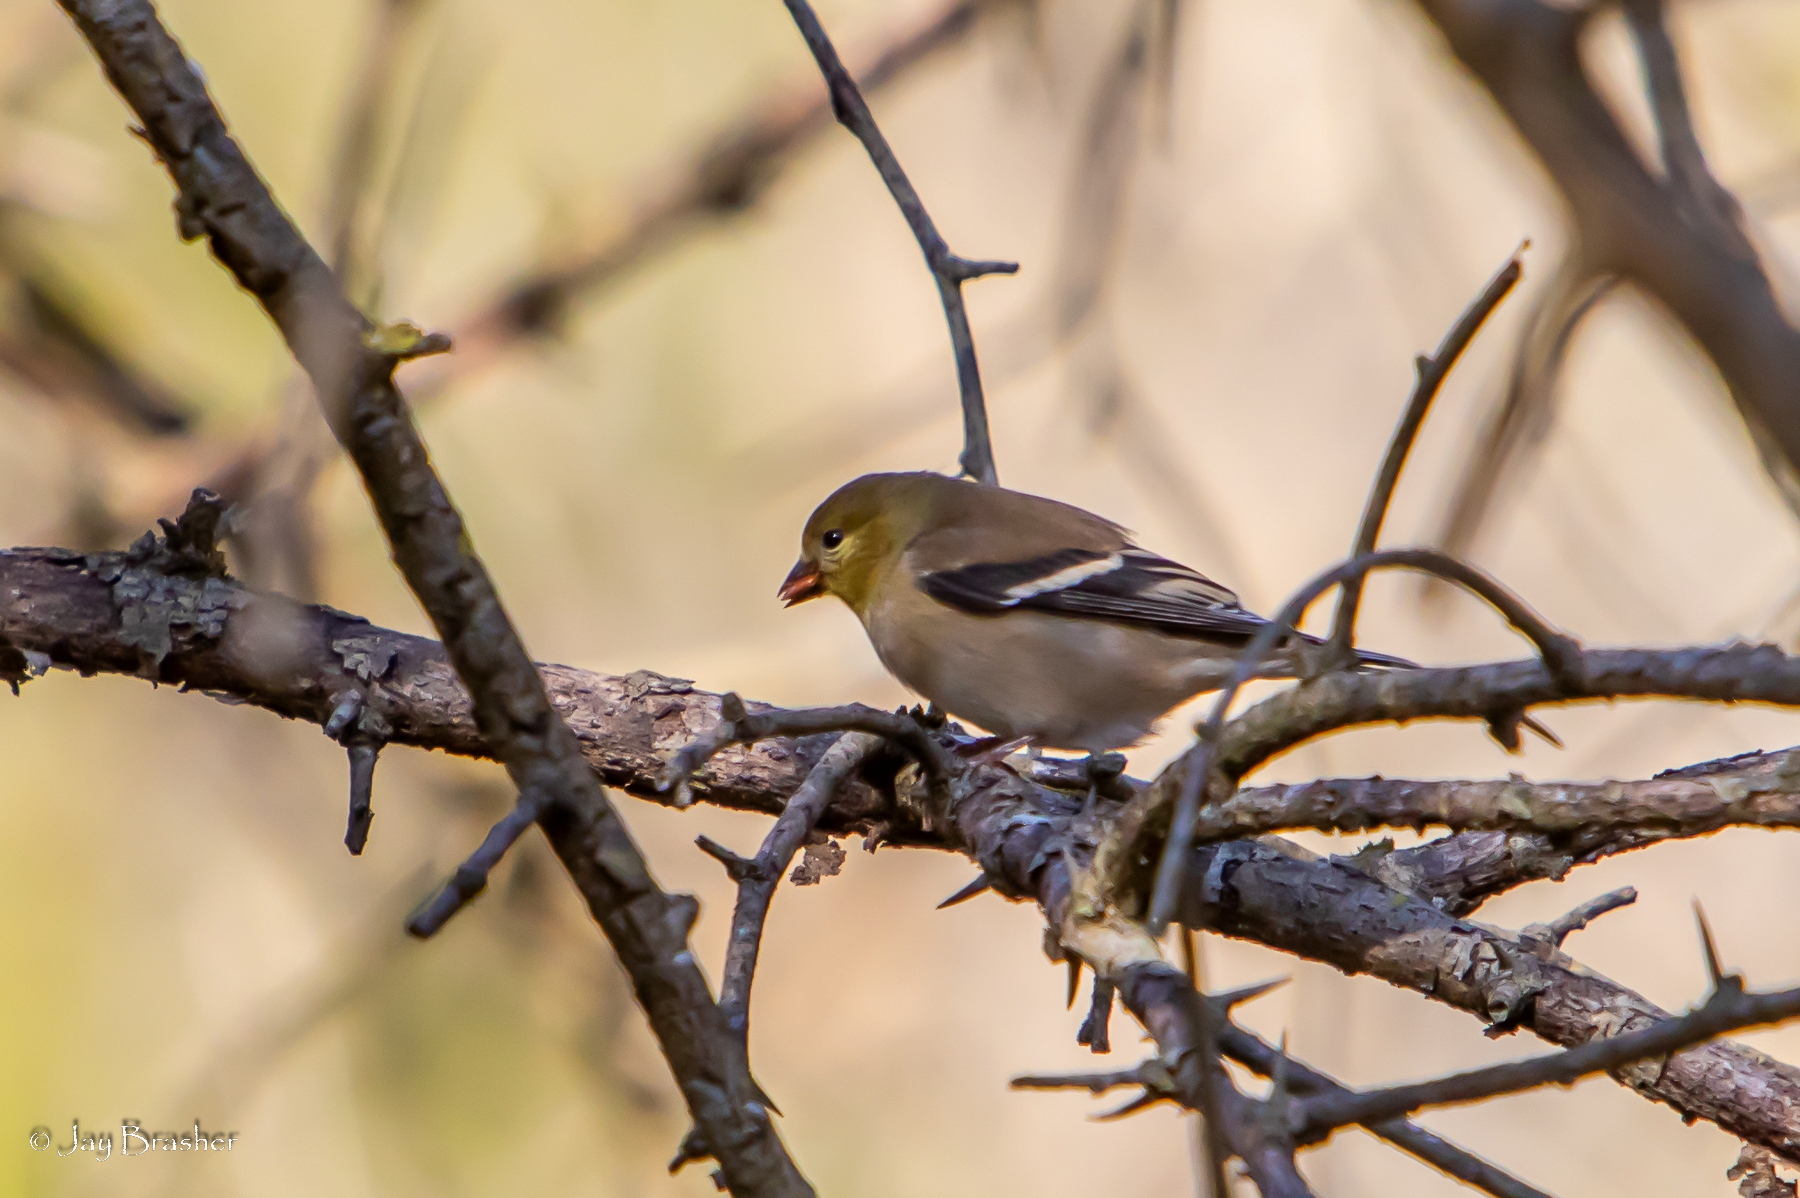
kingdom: Animalia
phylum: Chordata
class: Aves
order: Passeriformes
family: Fringillidae
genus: Spinus
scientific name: Spinus tristis
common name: American goldfinch
